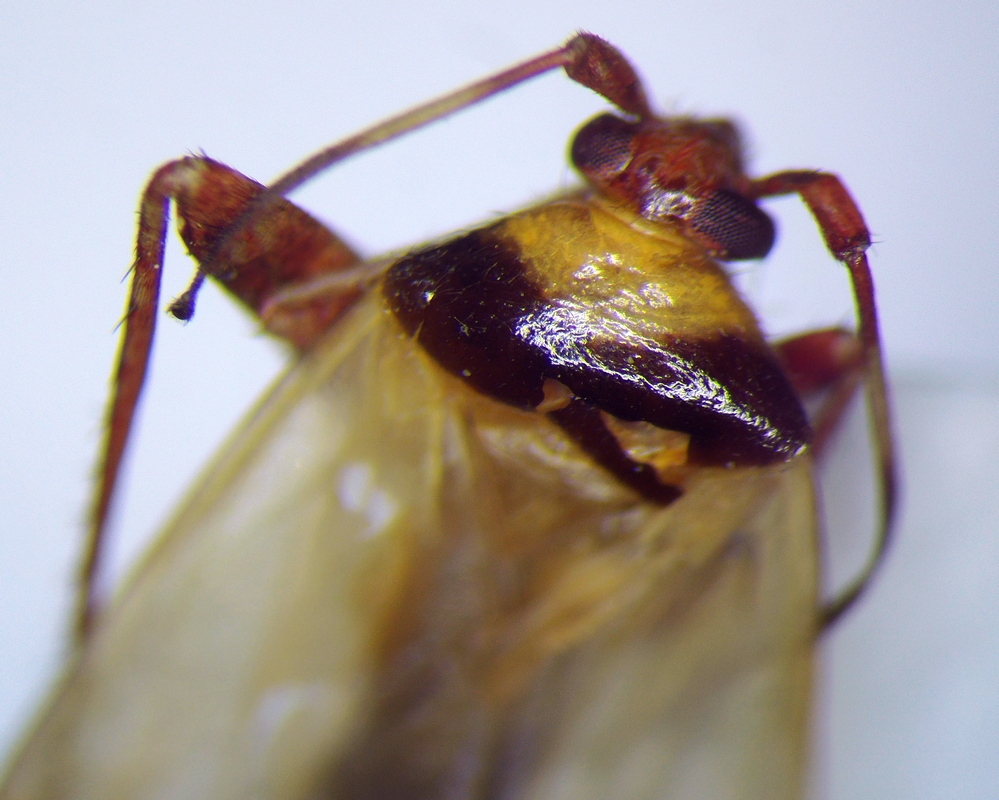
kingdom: Animalia
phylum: Arthropoda
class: Insecta
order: Hemiptera
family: Miridae
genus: Adelphocoris
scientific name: Adelphocoris vandalicus
